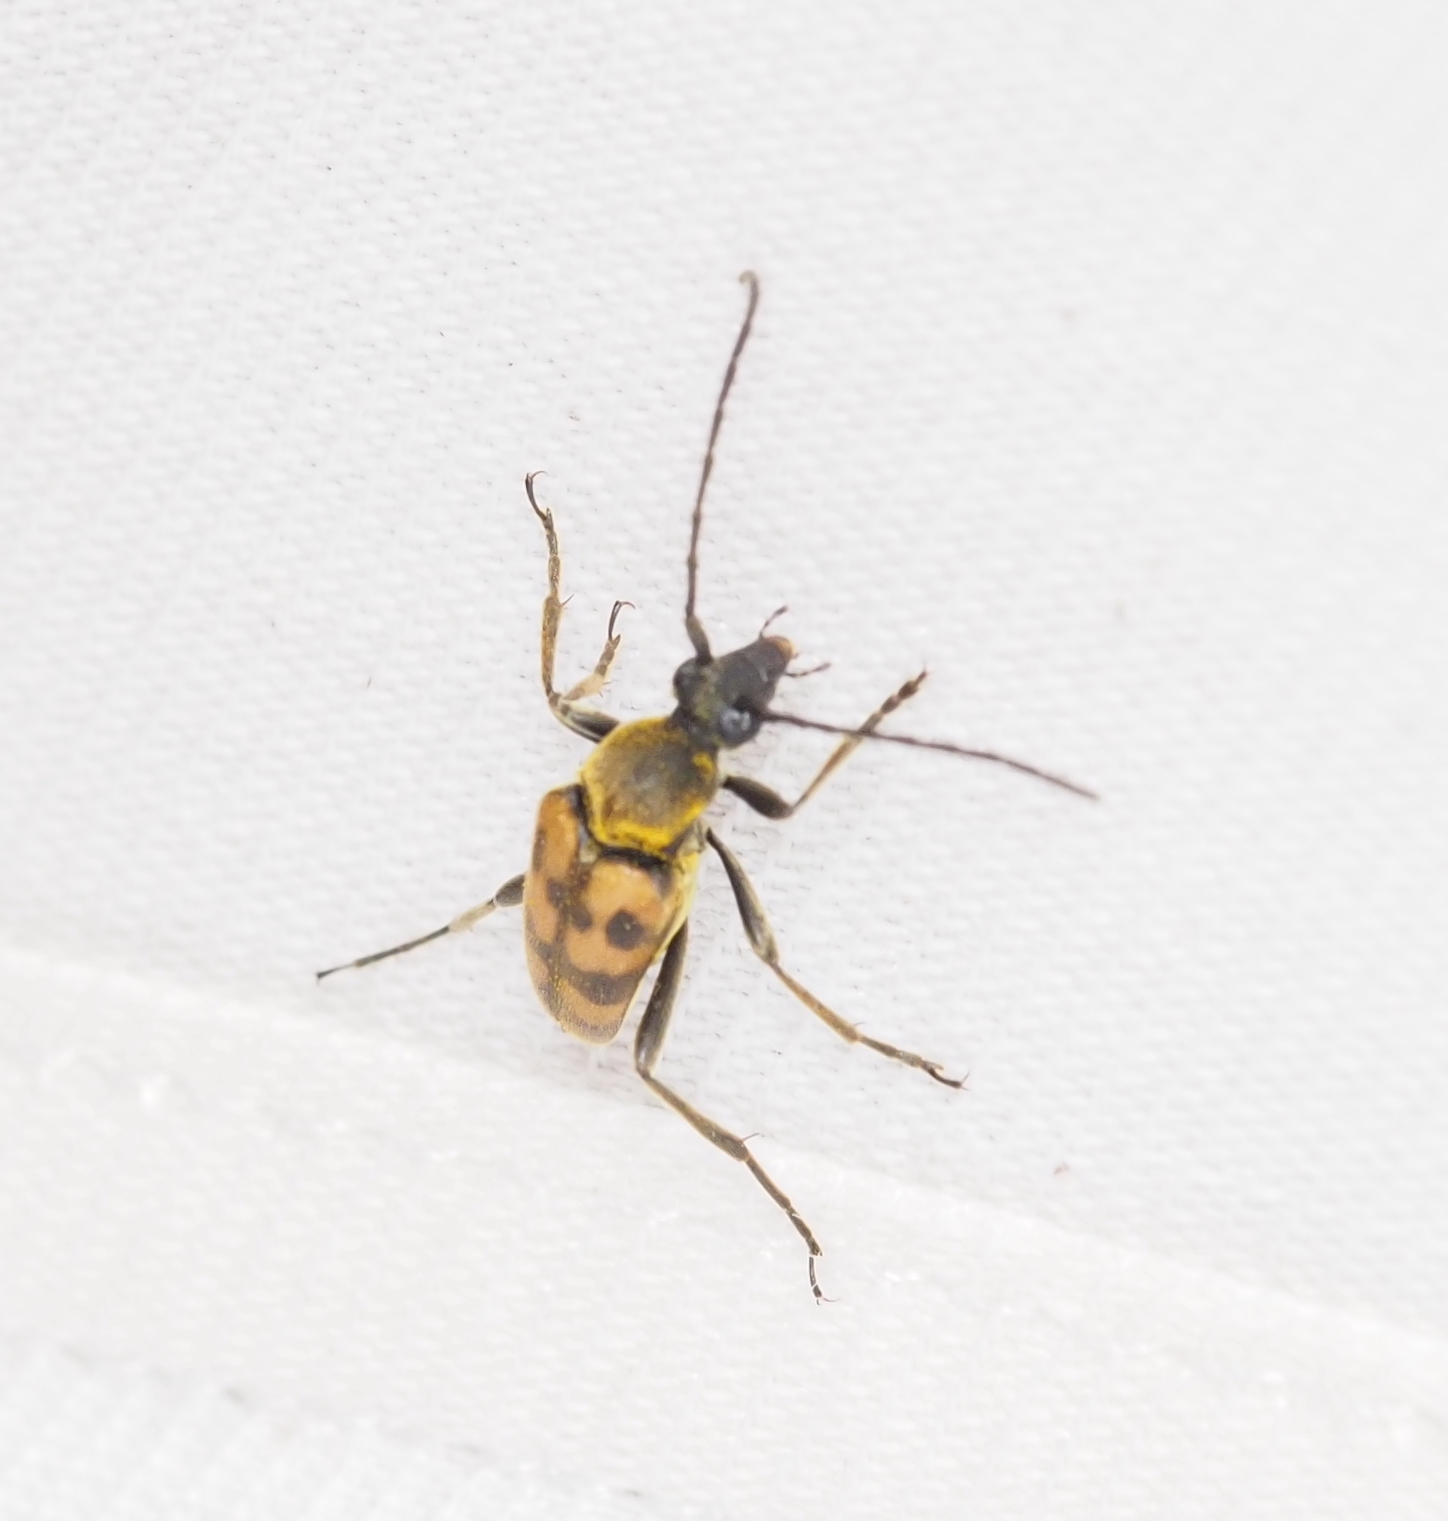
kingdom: Animalia
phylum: Arthropoda
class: Insecta
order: Coleoptera
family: Cerambycidae
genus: Pachytodes
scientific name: Pachytodes
